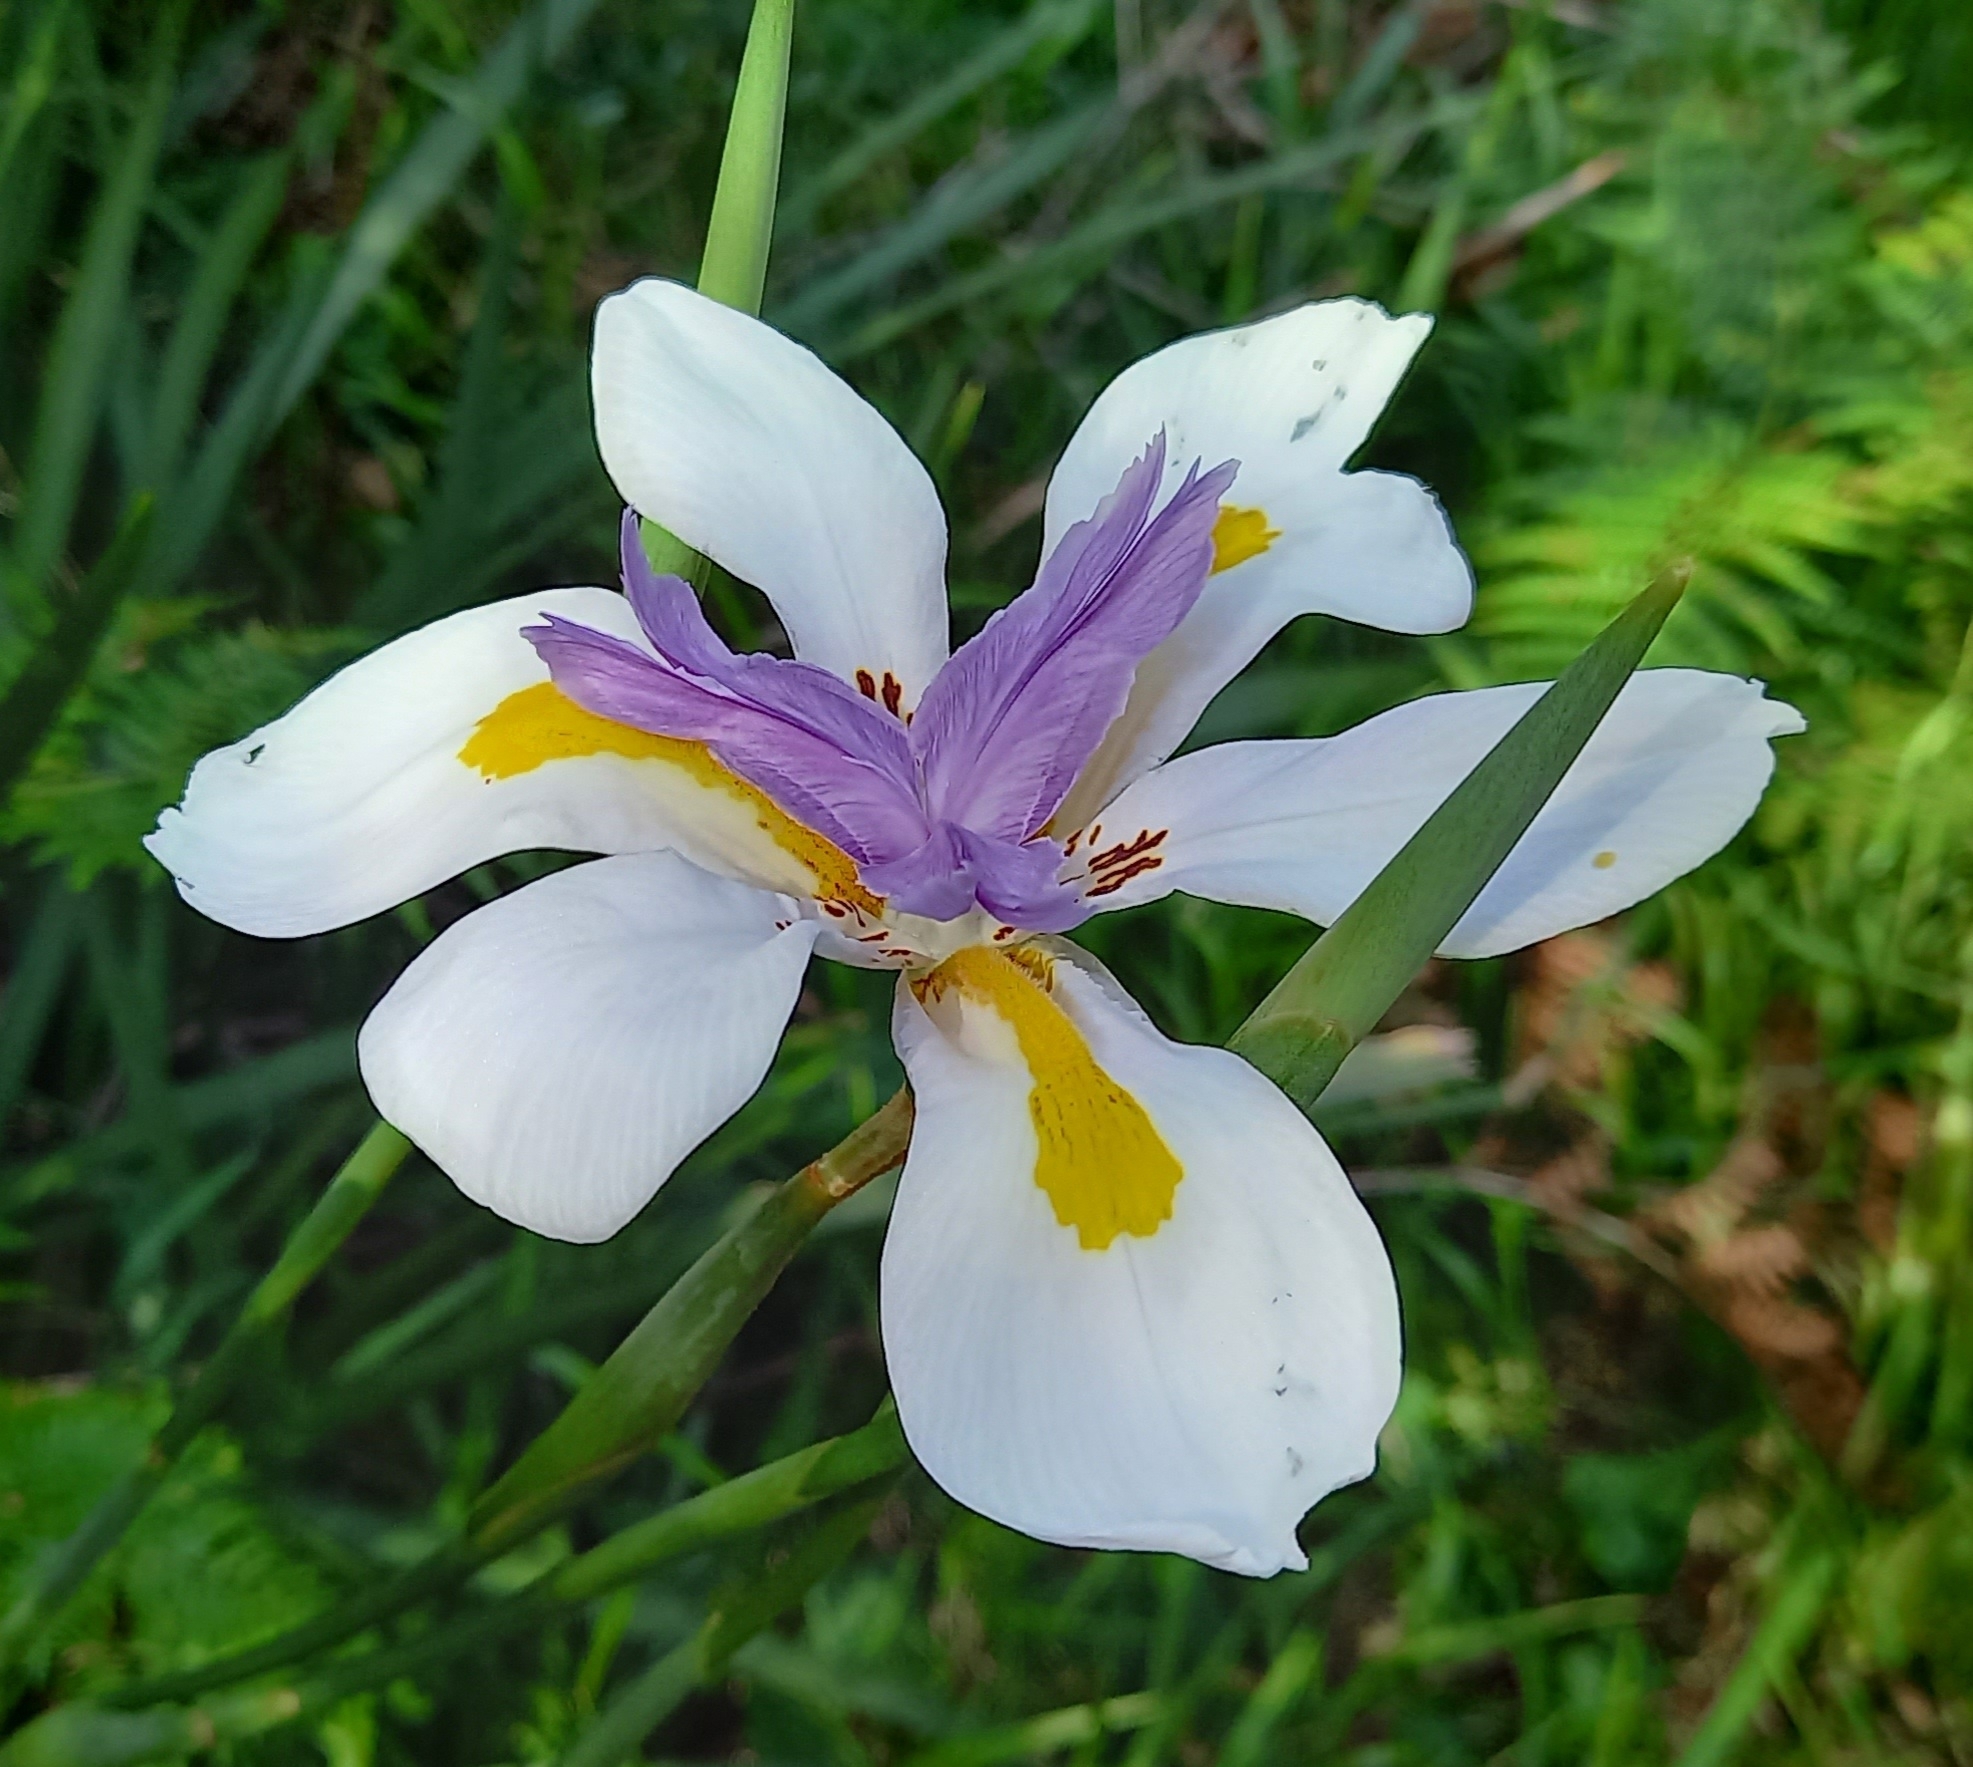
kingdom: Plantae
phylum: Tracheophyta
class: Liliopsida
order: Asparagales
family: Iridaceae
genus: Dietes
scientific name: Dietes grandiflora
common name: Wild iris
